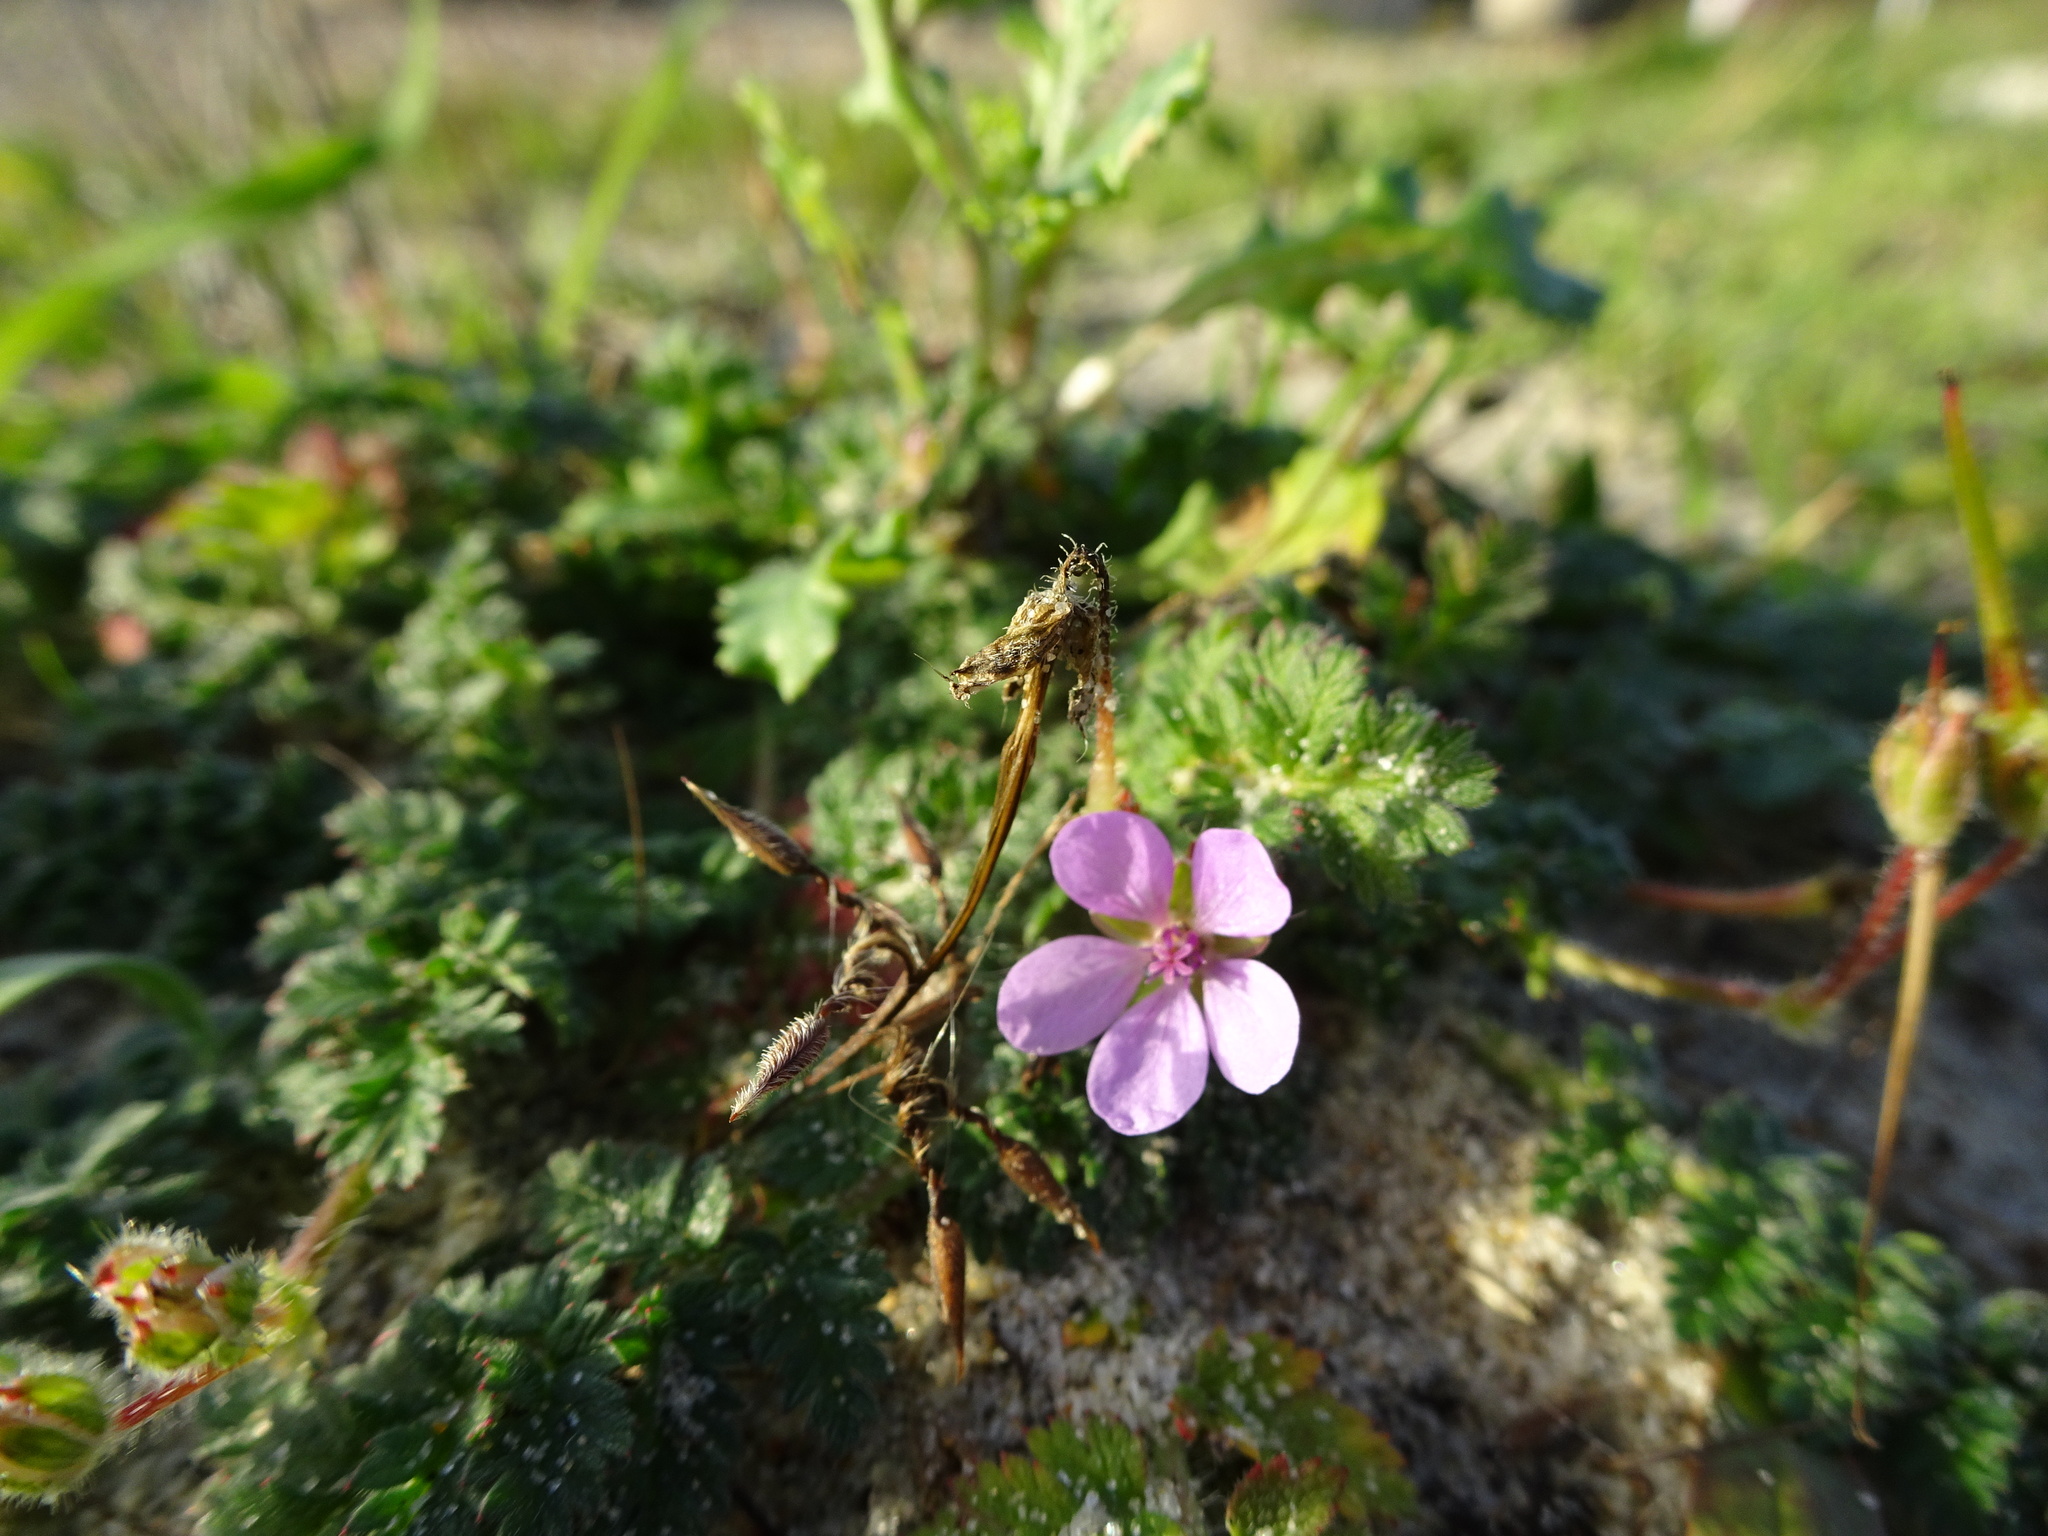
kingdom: Plantae
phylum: Tracheophyta
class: Magnoliopsida
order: Geraniales
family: Geraniaceae
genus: Erodium
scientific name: Erodium cicutarium
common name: Common stork's-bill
